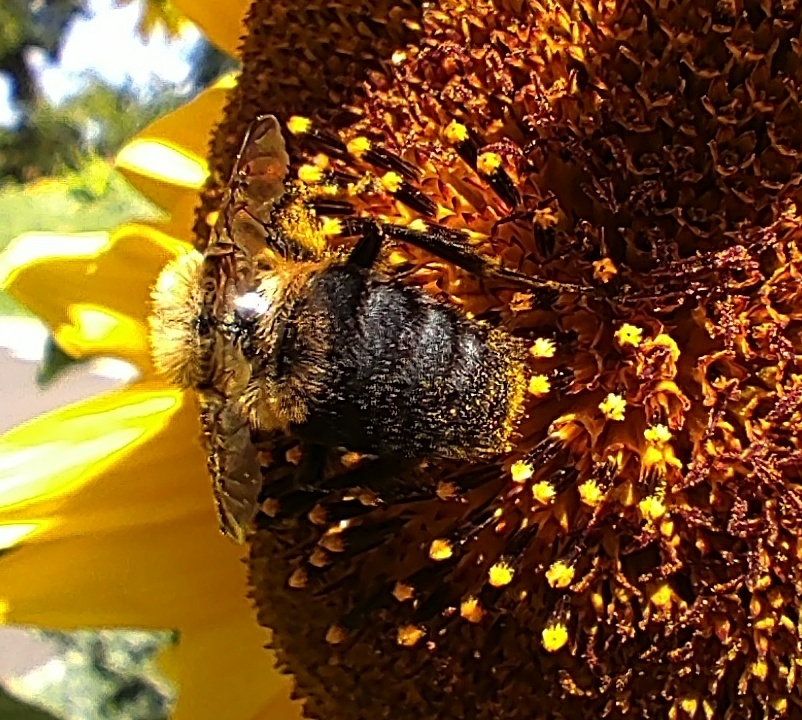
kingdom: Animalia
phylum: Arthropoda
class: Insecta
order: Hymenoptera
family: Apidae
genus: Bombus
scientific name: Bombus griseocollis
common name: Brown-belted bumble bee
